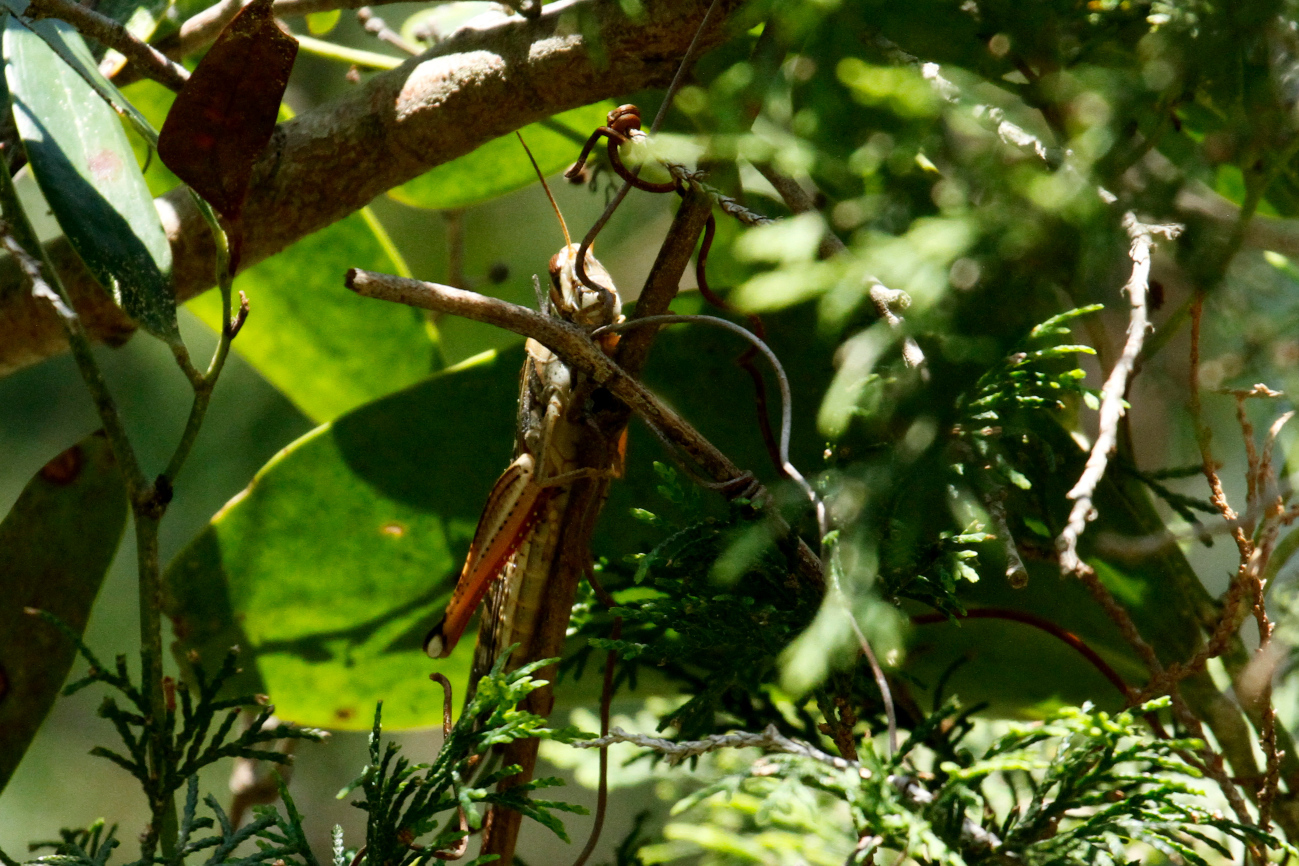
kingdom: Animalia
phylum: Arthropoda
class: Insecta
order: Orthoptera
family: Acrididae
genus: Schistocerca
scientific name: Schistocerca americana
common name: American bird locust
